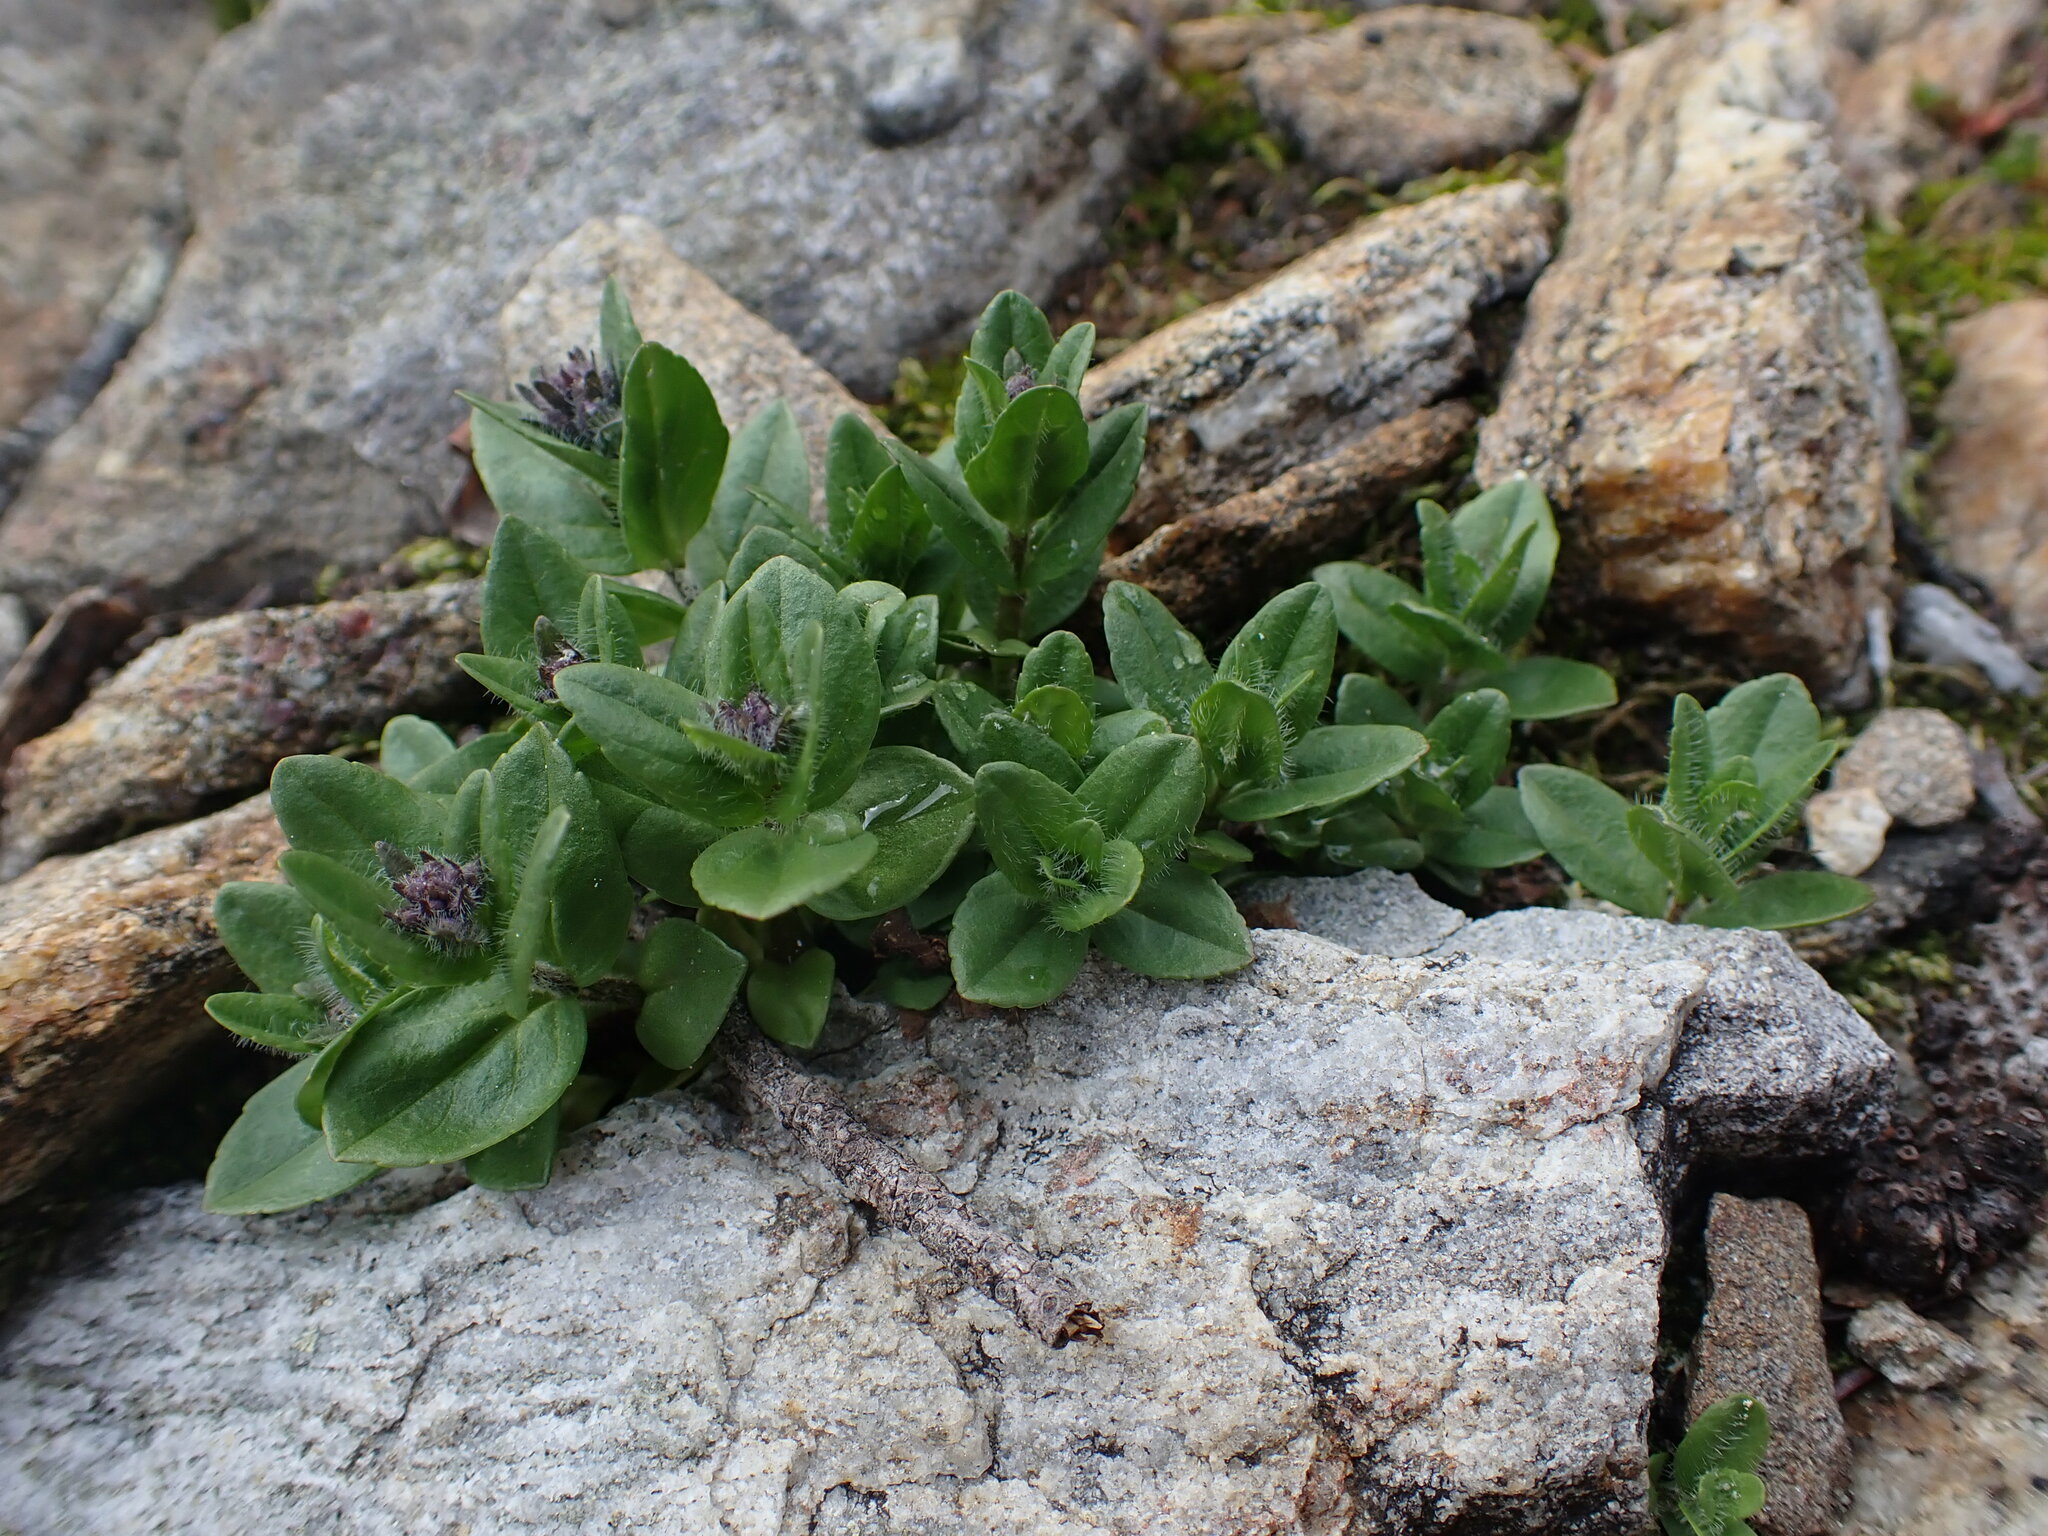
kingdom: Plantae
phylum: Tracheophyta
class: Magnoliopsida
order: Lamiales
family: Plantaginaceae
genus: Veronica
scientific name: Veronica wormskjoldii
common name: American alpine speedwell
